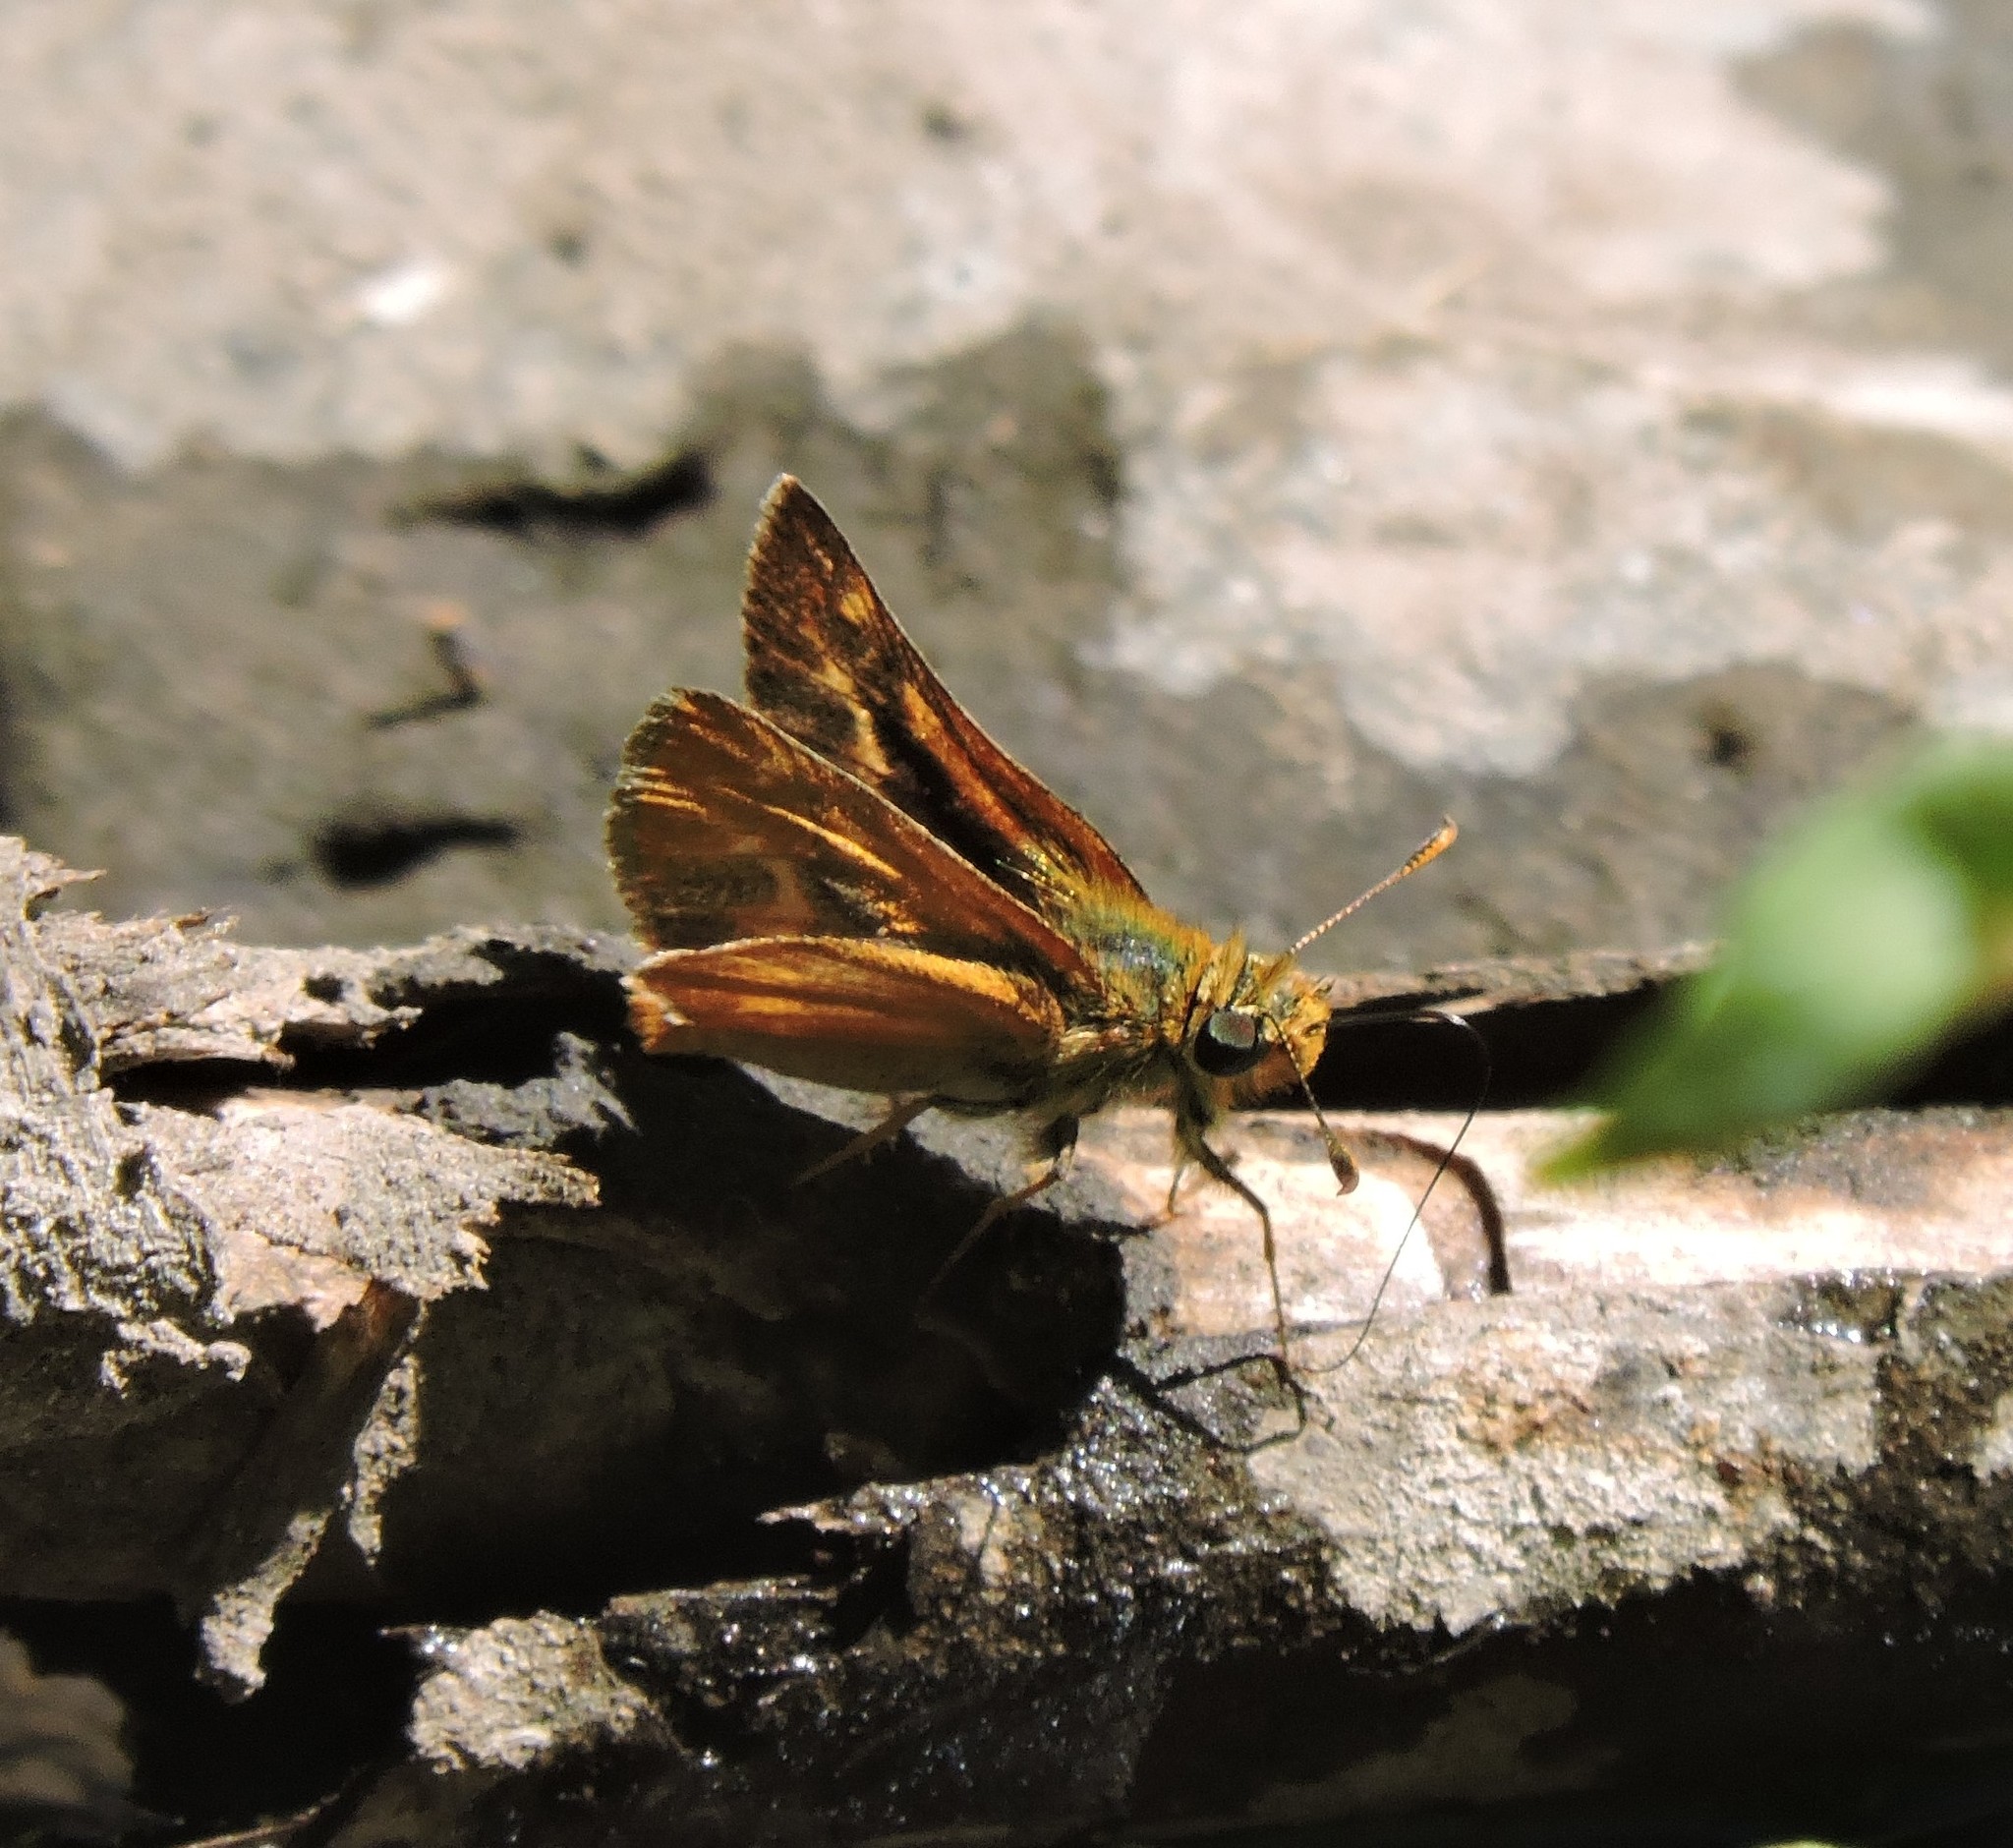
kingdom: Animalia
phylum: Arthropoda
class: Insecta
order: Lepidoptera
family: Hesperiidae
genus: Ochlodes
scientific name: Ochlodes agricola
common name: Rural skipper
